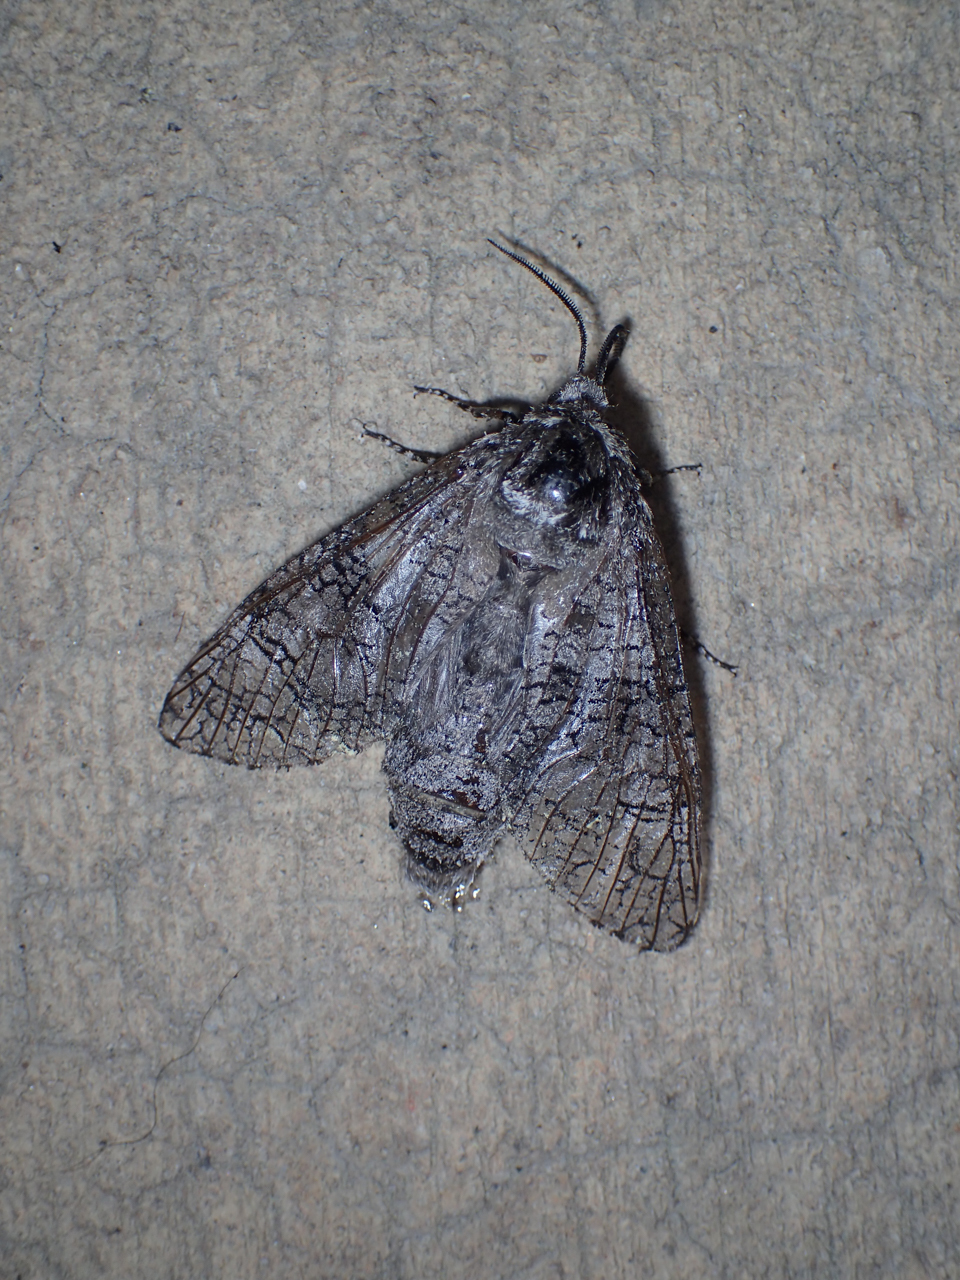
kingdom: Animalia
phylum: Arthropoda
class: Insecta
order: Lepidoptera
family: Cossidae
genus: Prionoxystus
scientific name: Prionoxystus macmurtrei
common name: Little carpenterworm
